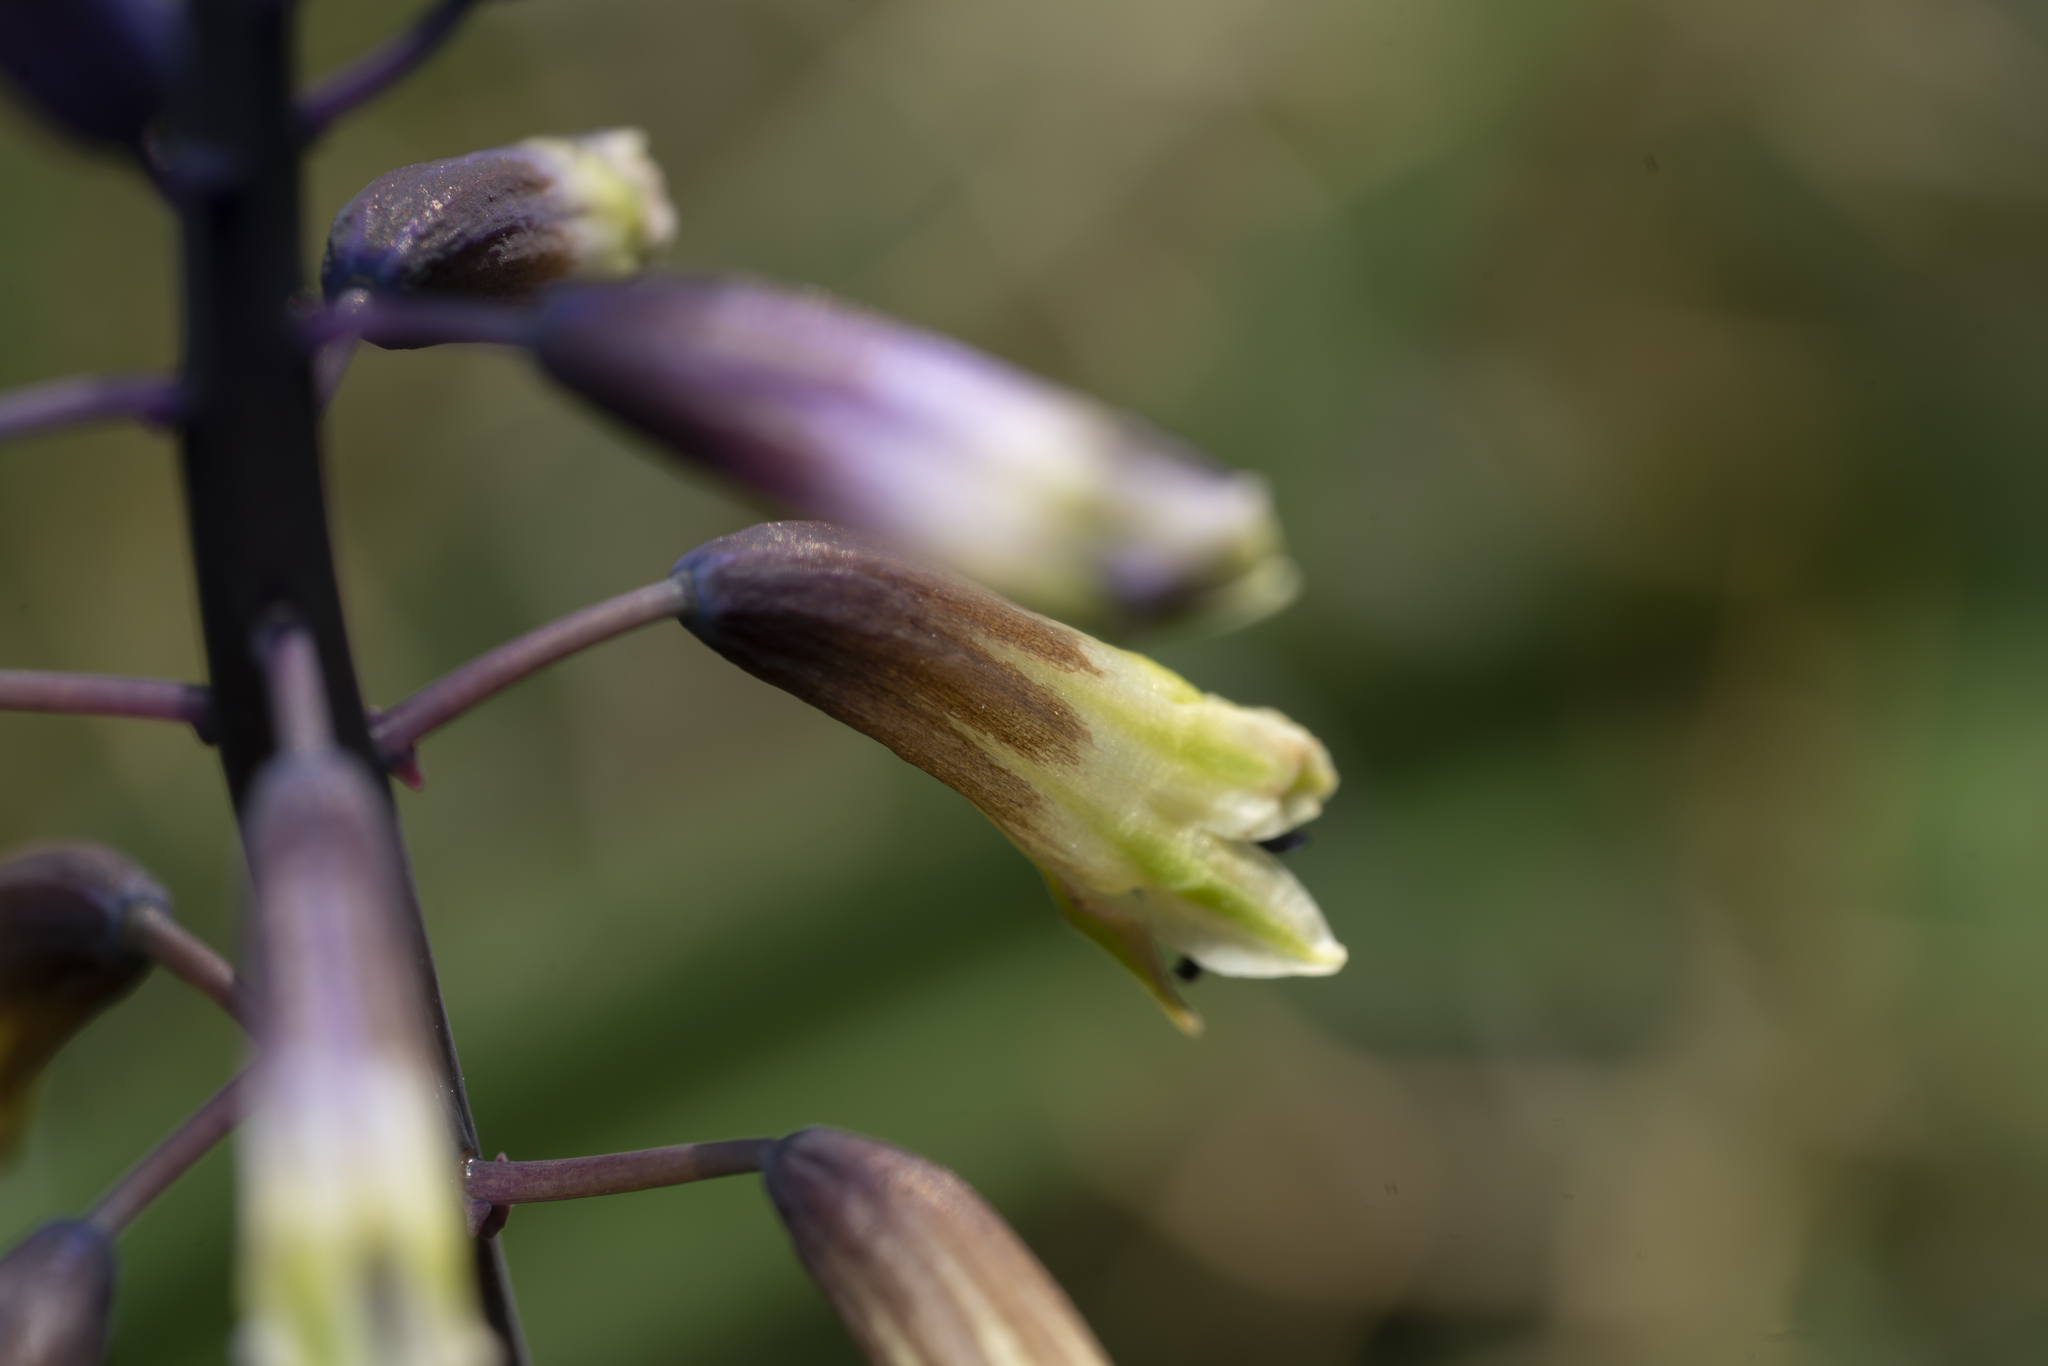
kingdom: Plantae
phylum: Tracheophyta
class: Liliopsida
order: Asparagales
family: Asparagaceae
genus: Bellevalia
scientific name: Bellevalia trifoliata
